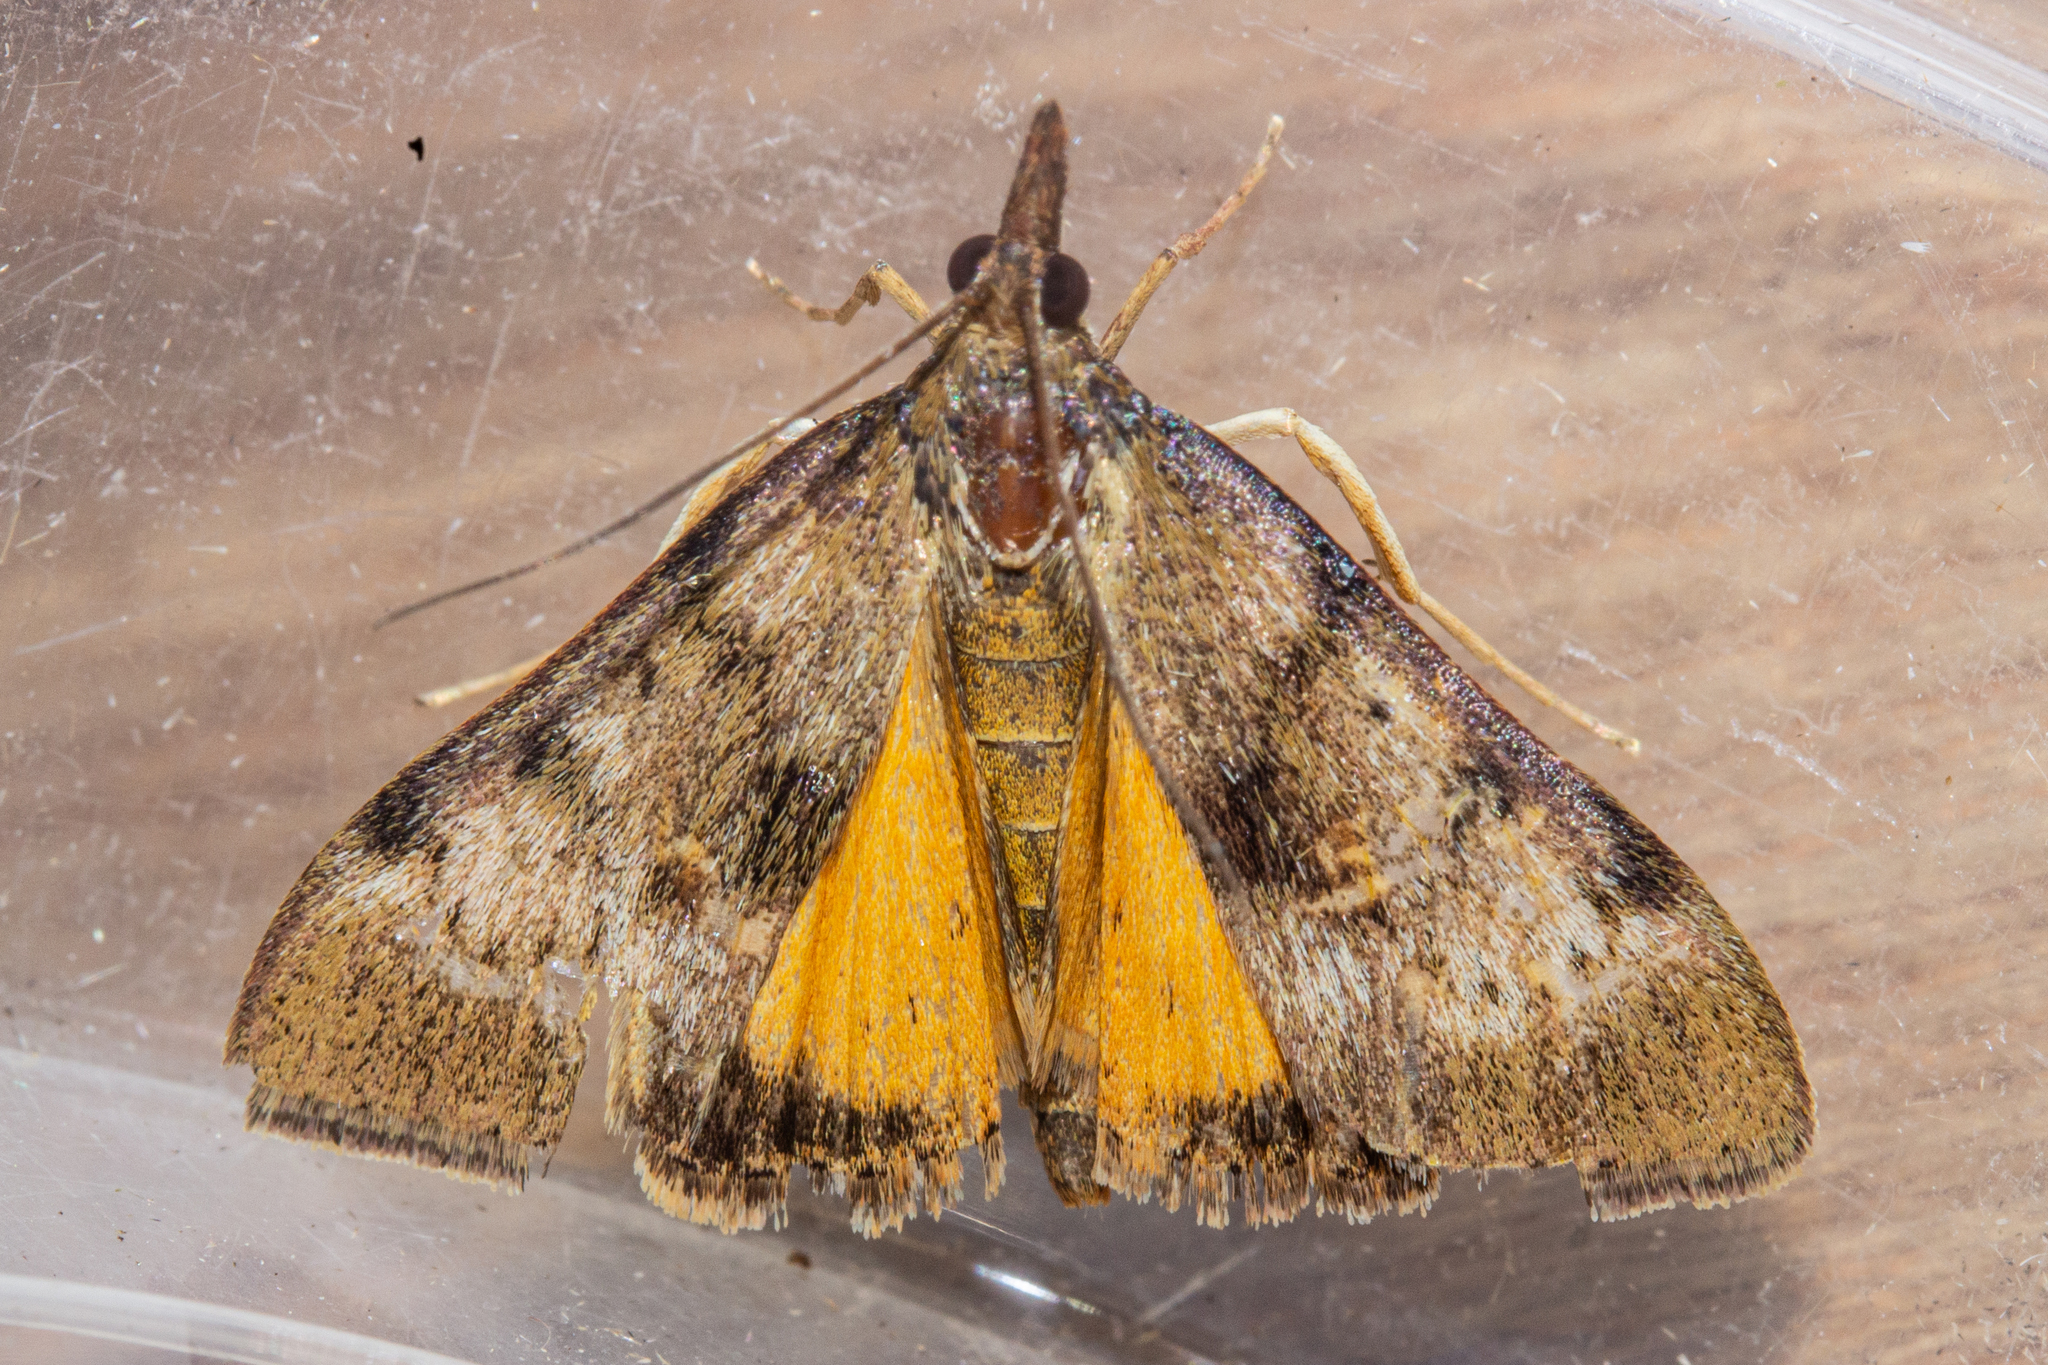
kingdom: Animalia
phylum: Arthropoda
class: Insecta
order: Lepidoptera
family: Crambidae
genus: Uresiphita
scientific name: Uresiphita
